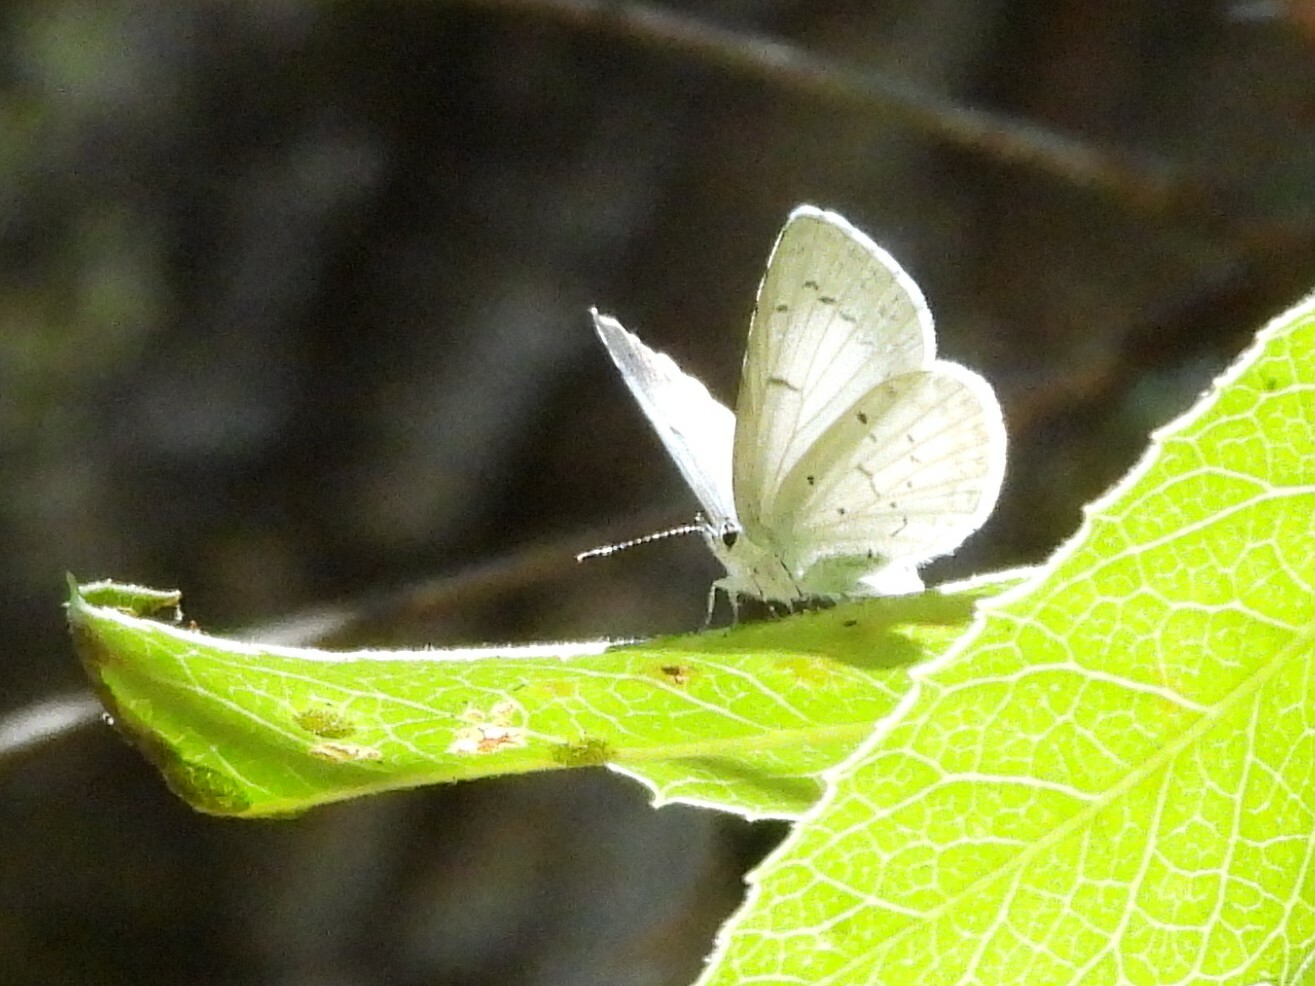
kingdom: Animalia
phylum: Arthropoda
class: Insecta
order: Lepidoptera
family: Lycaenidae
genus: Celastrina
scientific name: Celastrina ladon
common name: Spring azure
